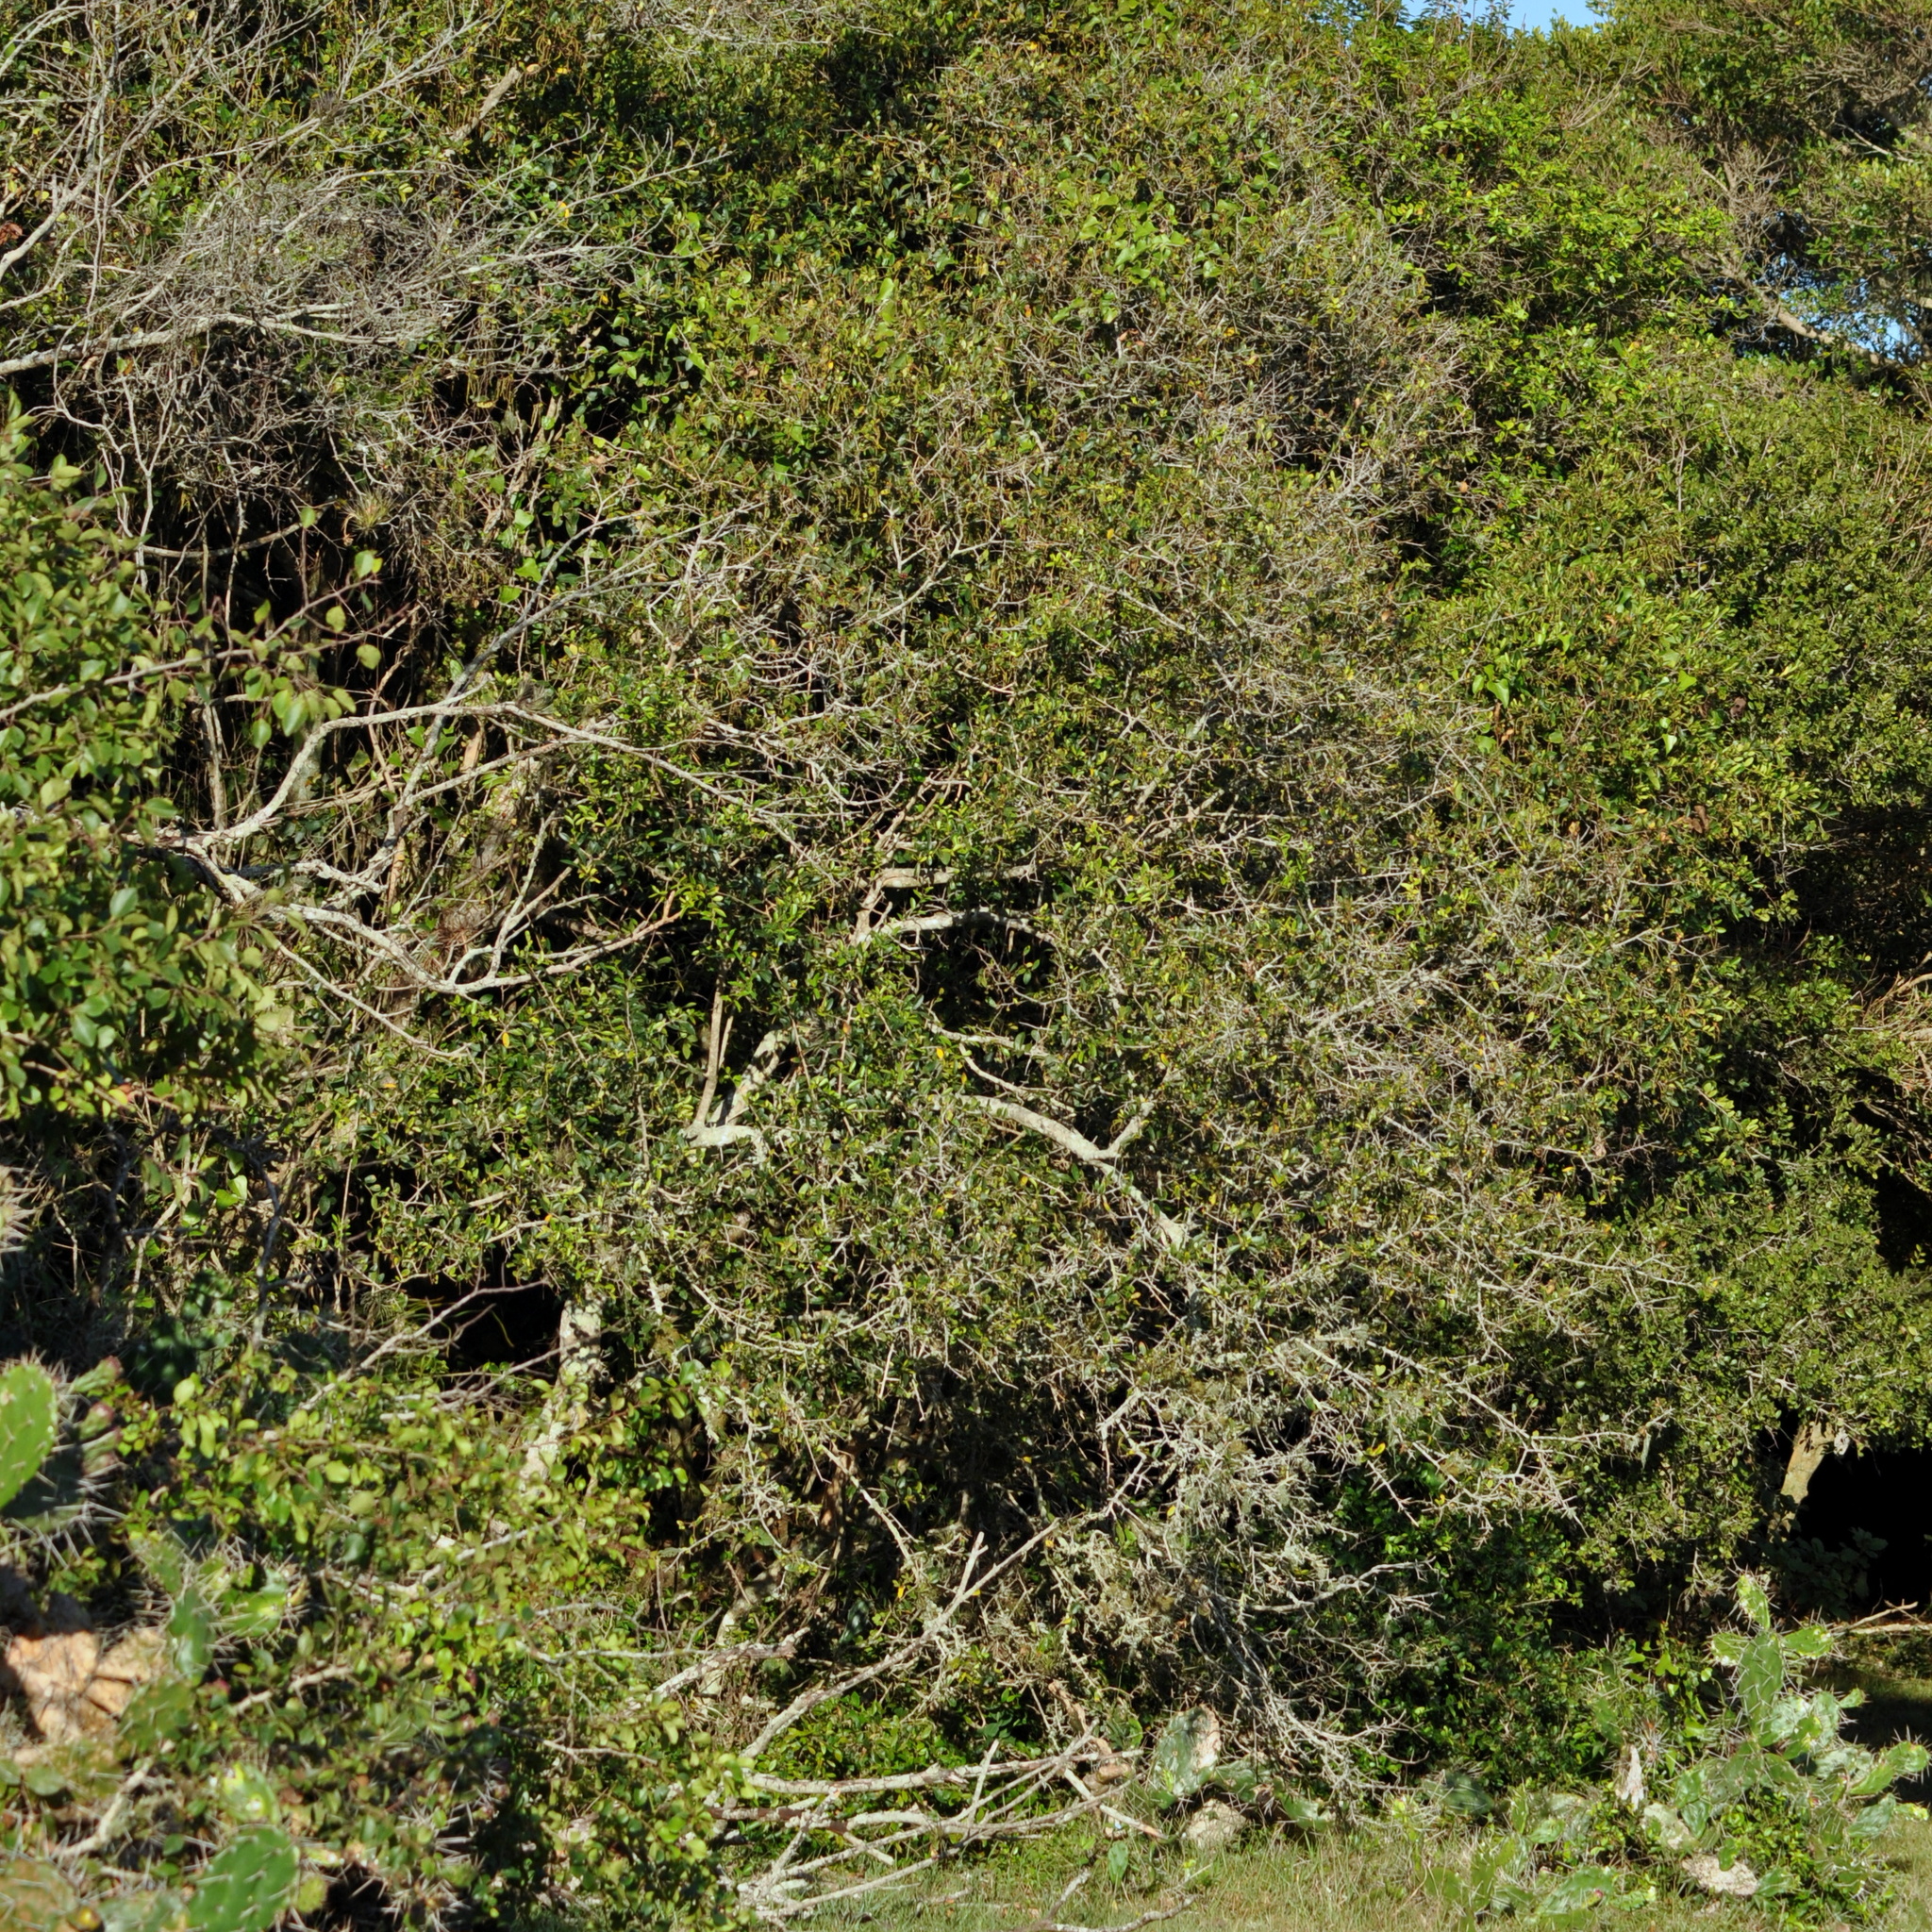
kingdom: Plantae
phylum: Tracheophyta
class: Magnoliopsida
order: Malpighiales
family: Euphorbiaceae
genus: Sebastiania
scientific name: Sebastiania klotzschiana
